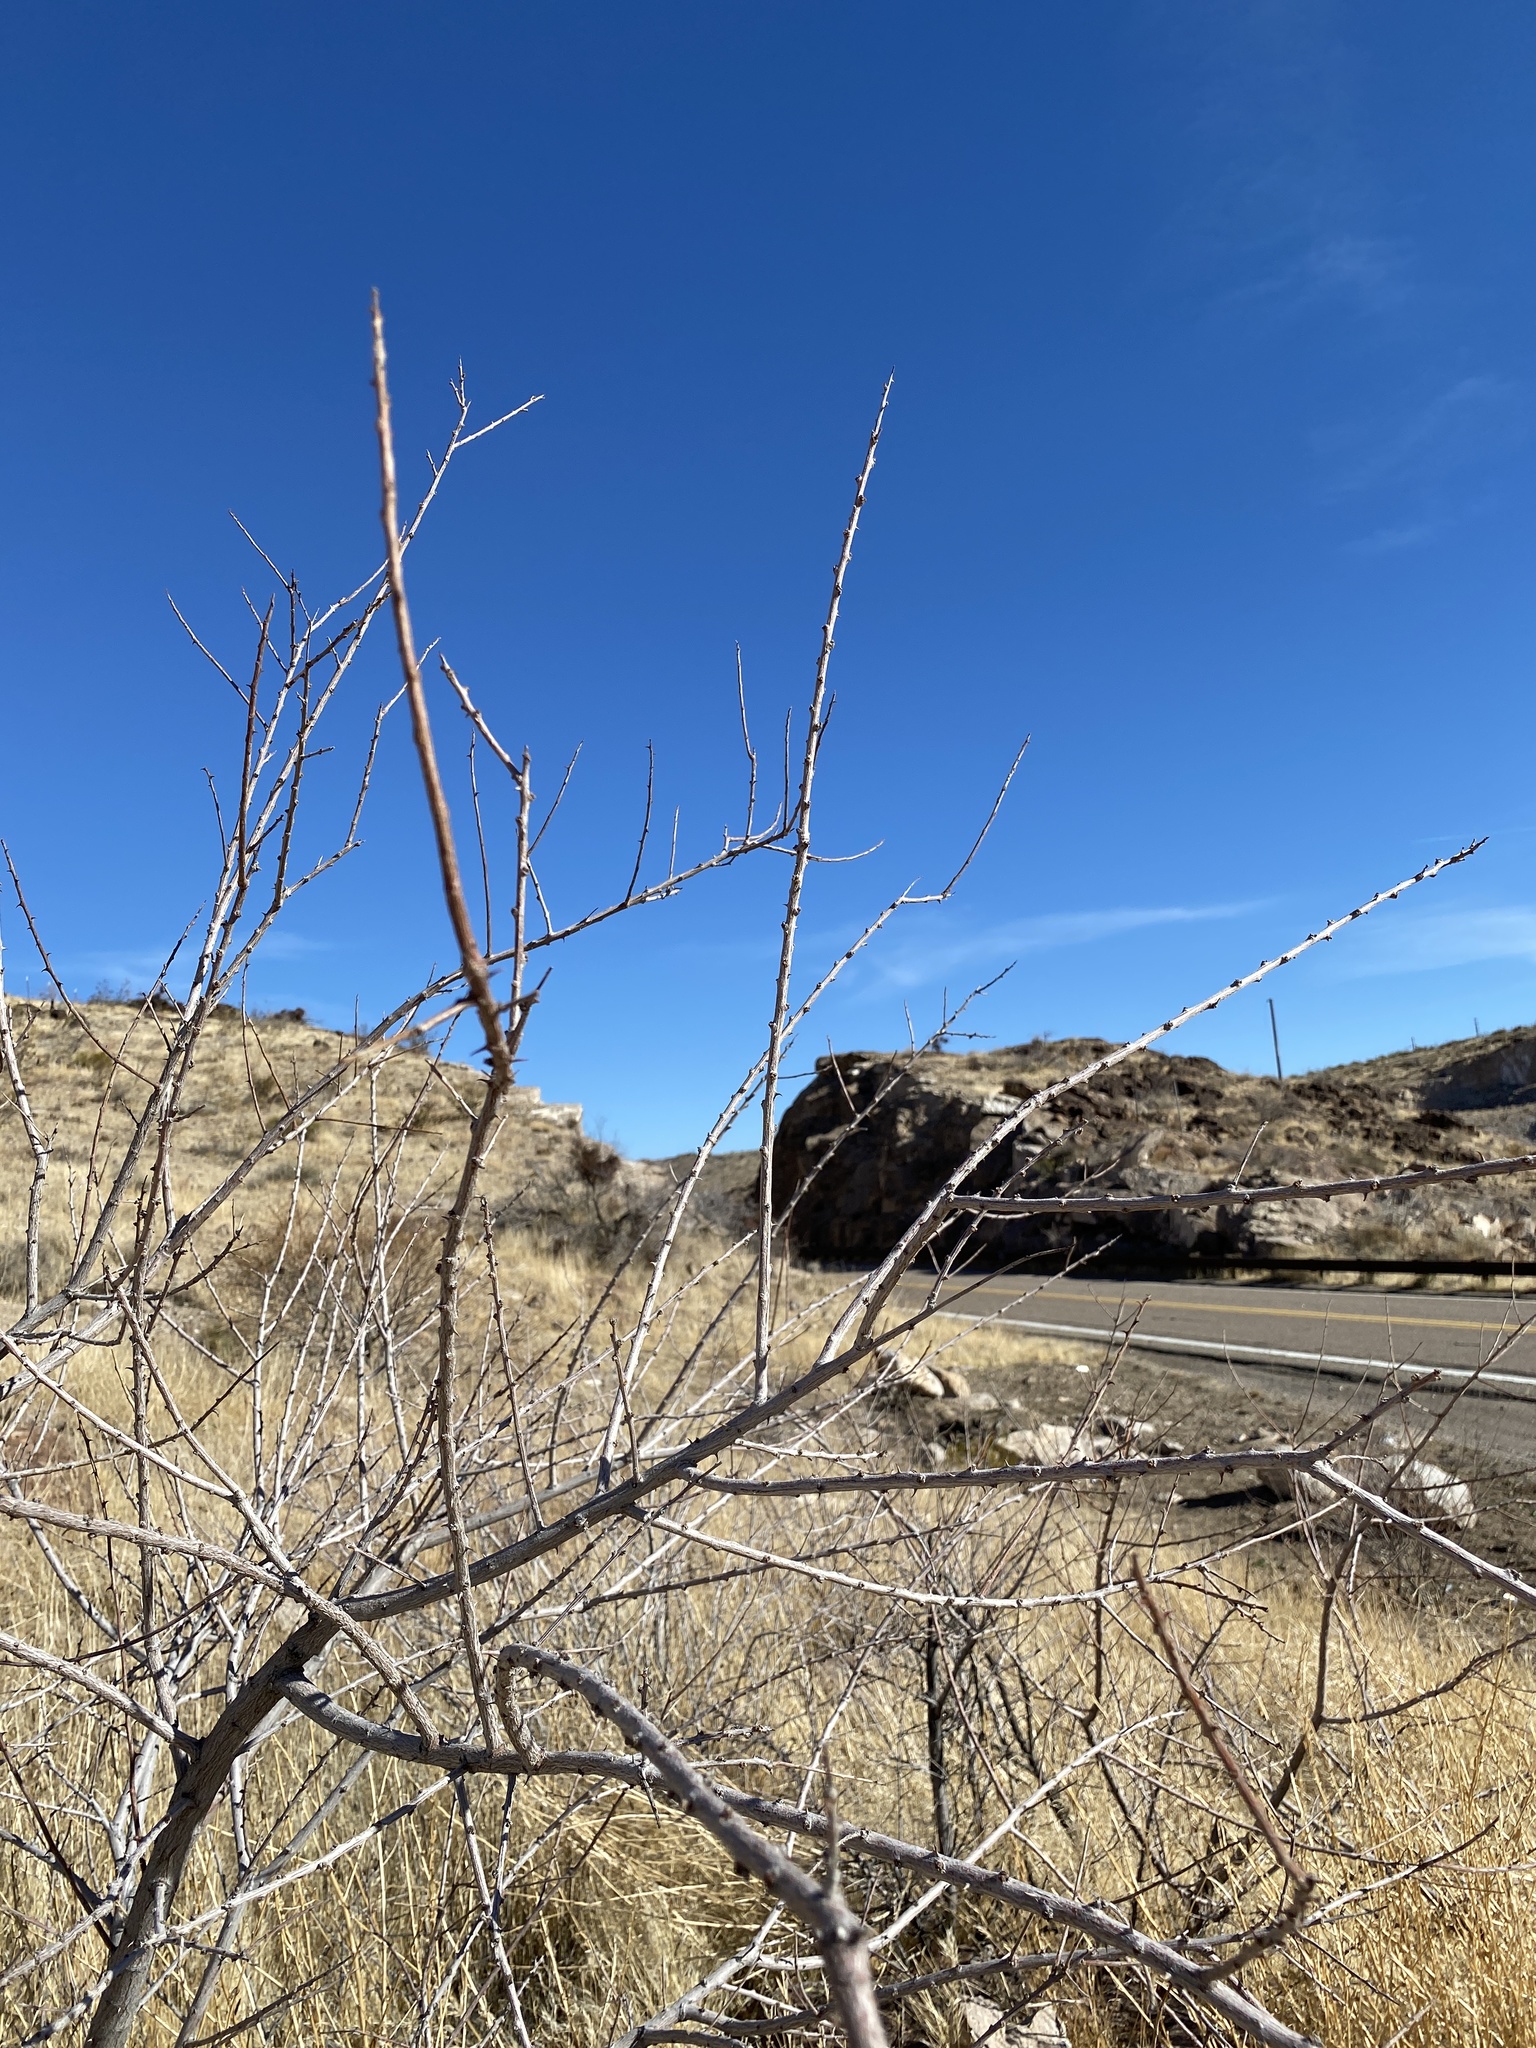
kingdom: Plantae
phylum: Tracheophyta
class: Magnoliopsida
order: Fabales
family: Fabaceae
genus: Senegalia
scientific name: Senegalia greggii
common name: Texas-mimosa
